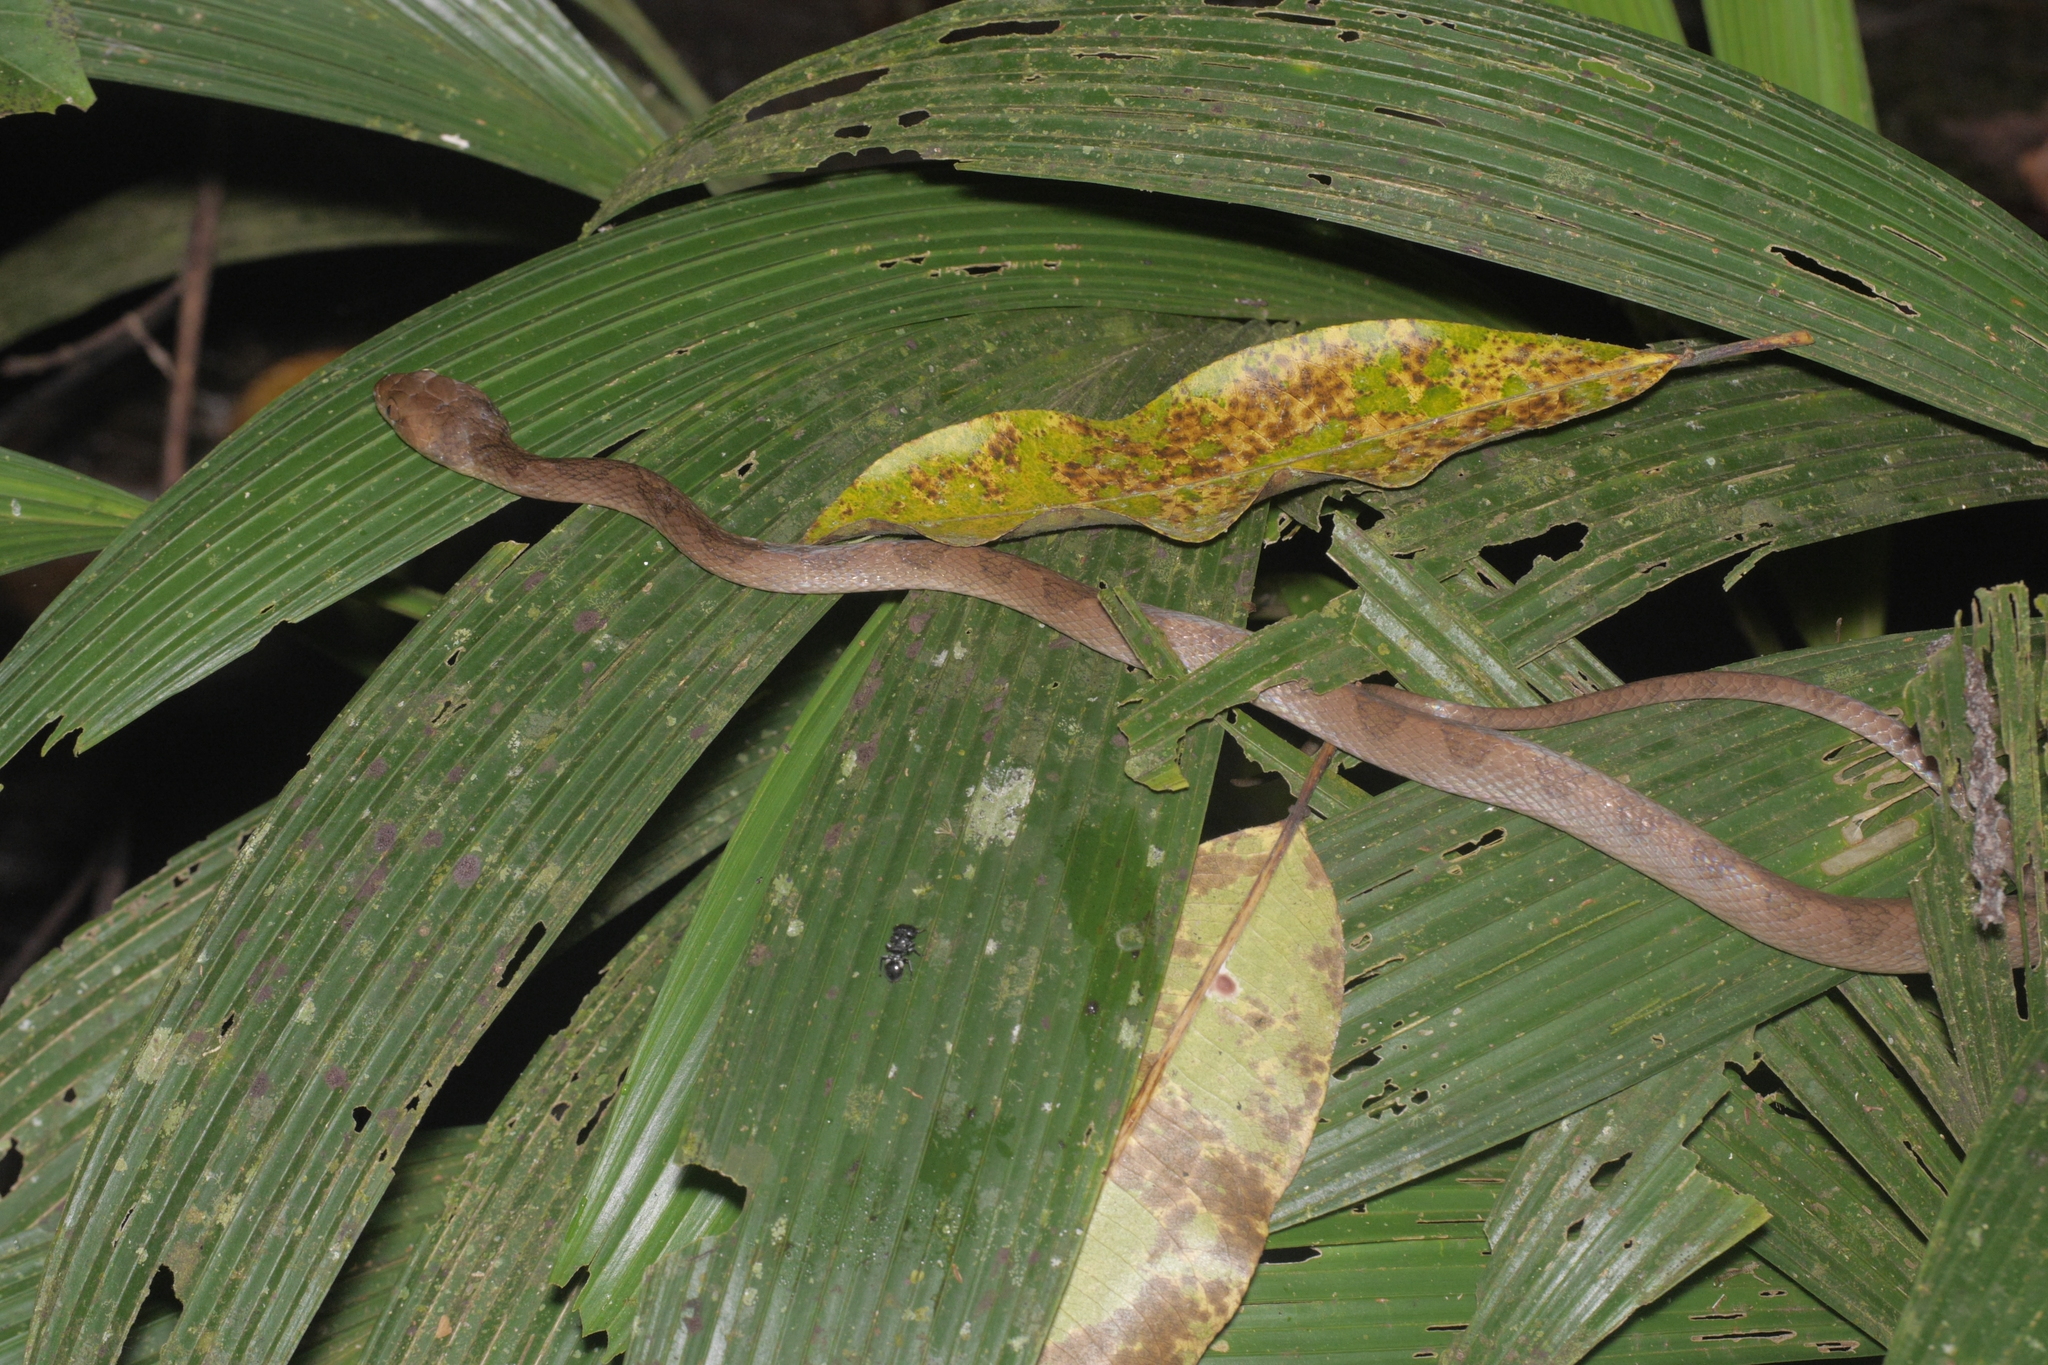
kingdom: Animalia
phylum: Chordata
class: Squamata
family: Colubridae
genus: Leptodeira
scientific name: Leptodeira ornata
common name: Northern cat-eyed snake
